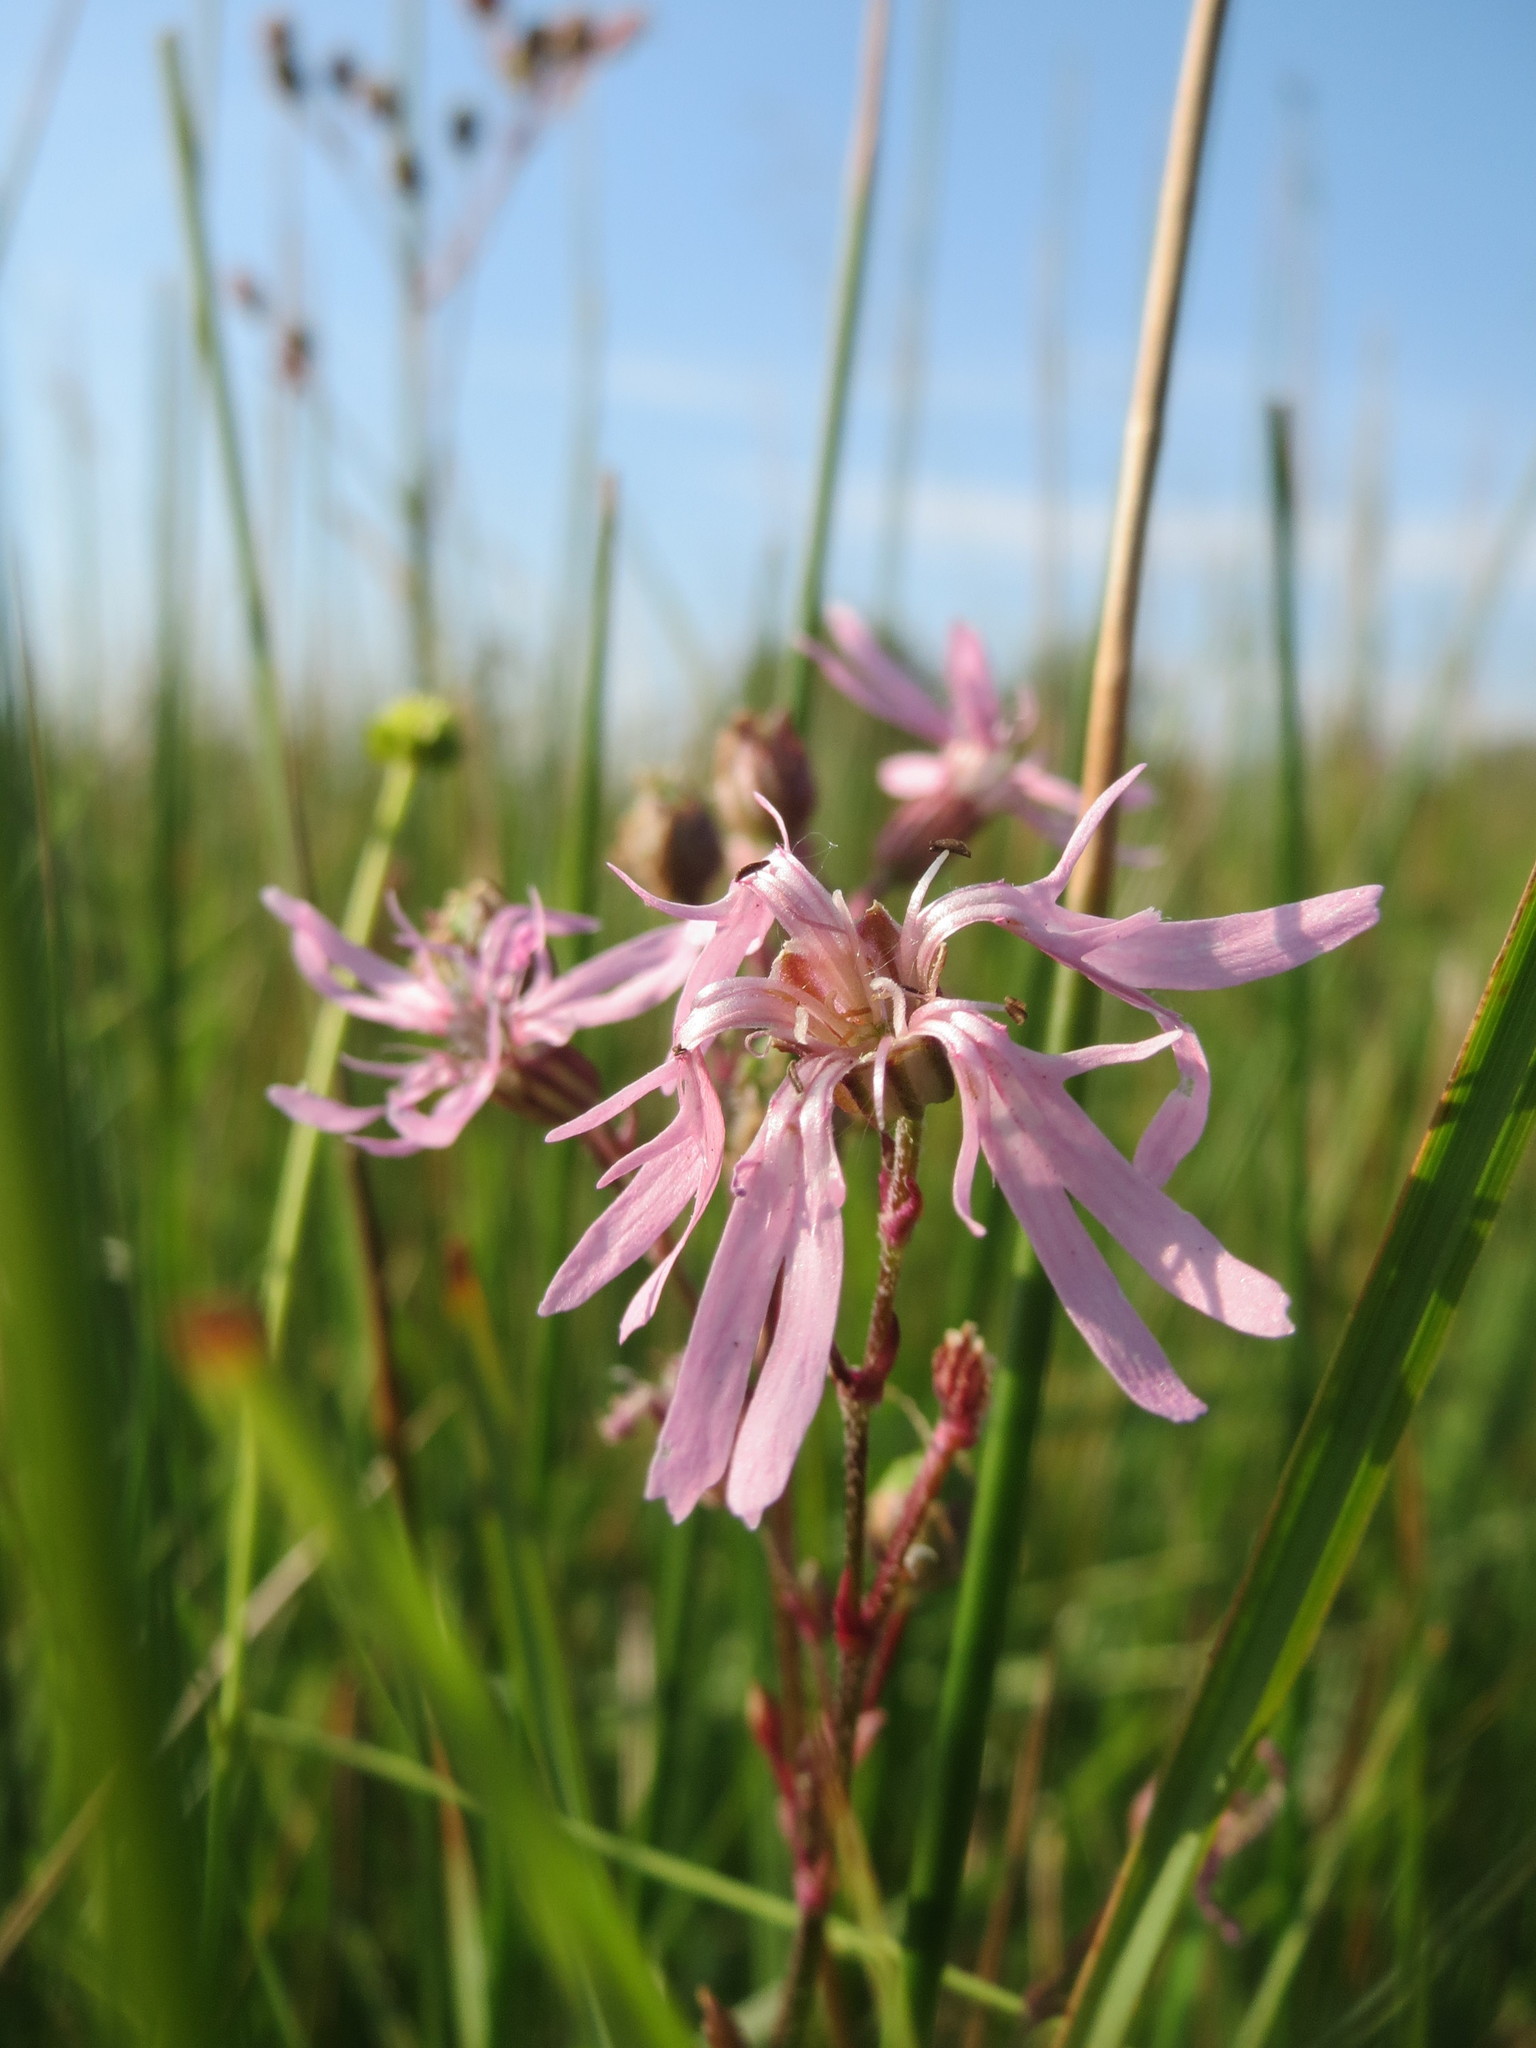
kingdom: Plantae
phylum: Tracheophyta
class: Magnoliopsida
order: Caryophyllales
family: Caryophyllaceae
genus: Silene
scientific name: Silene flos-cuculi
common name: Ragged-robin
